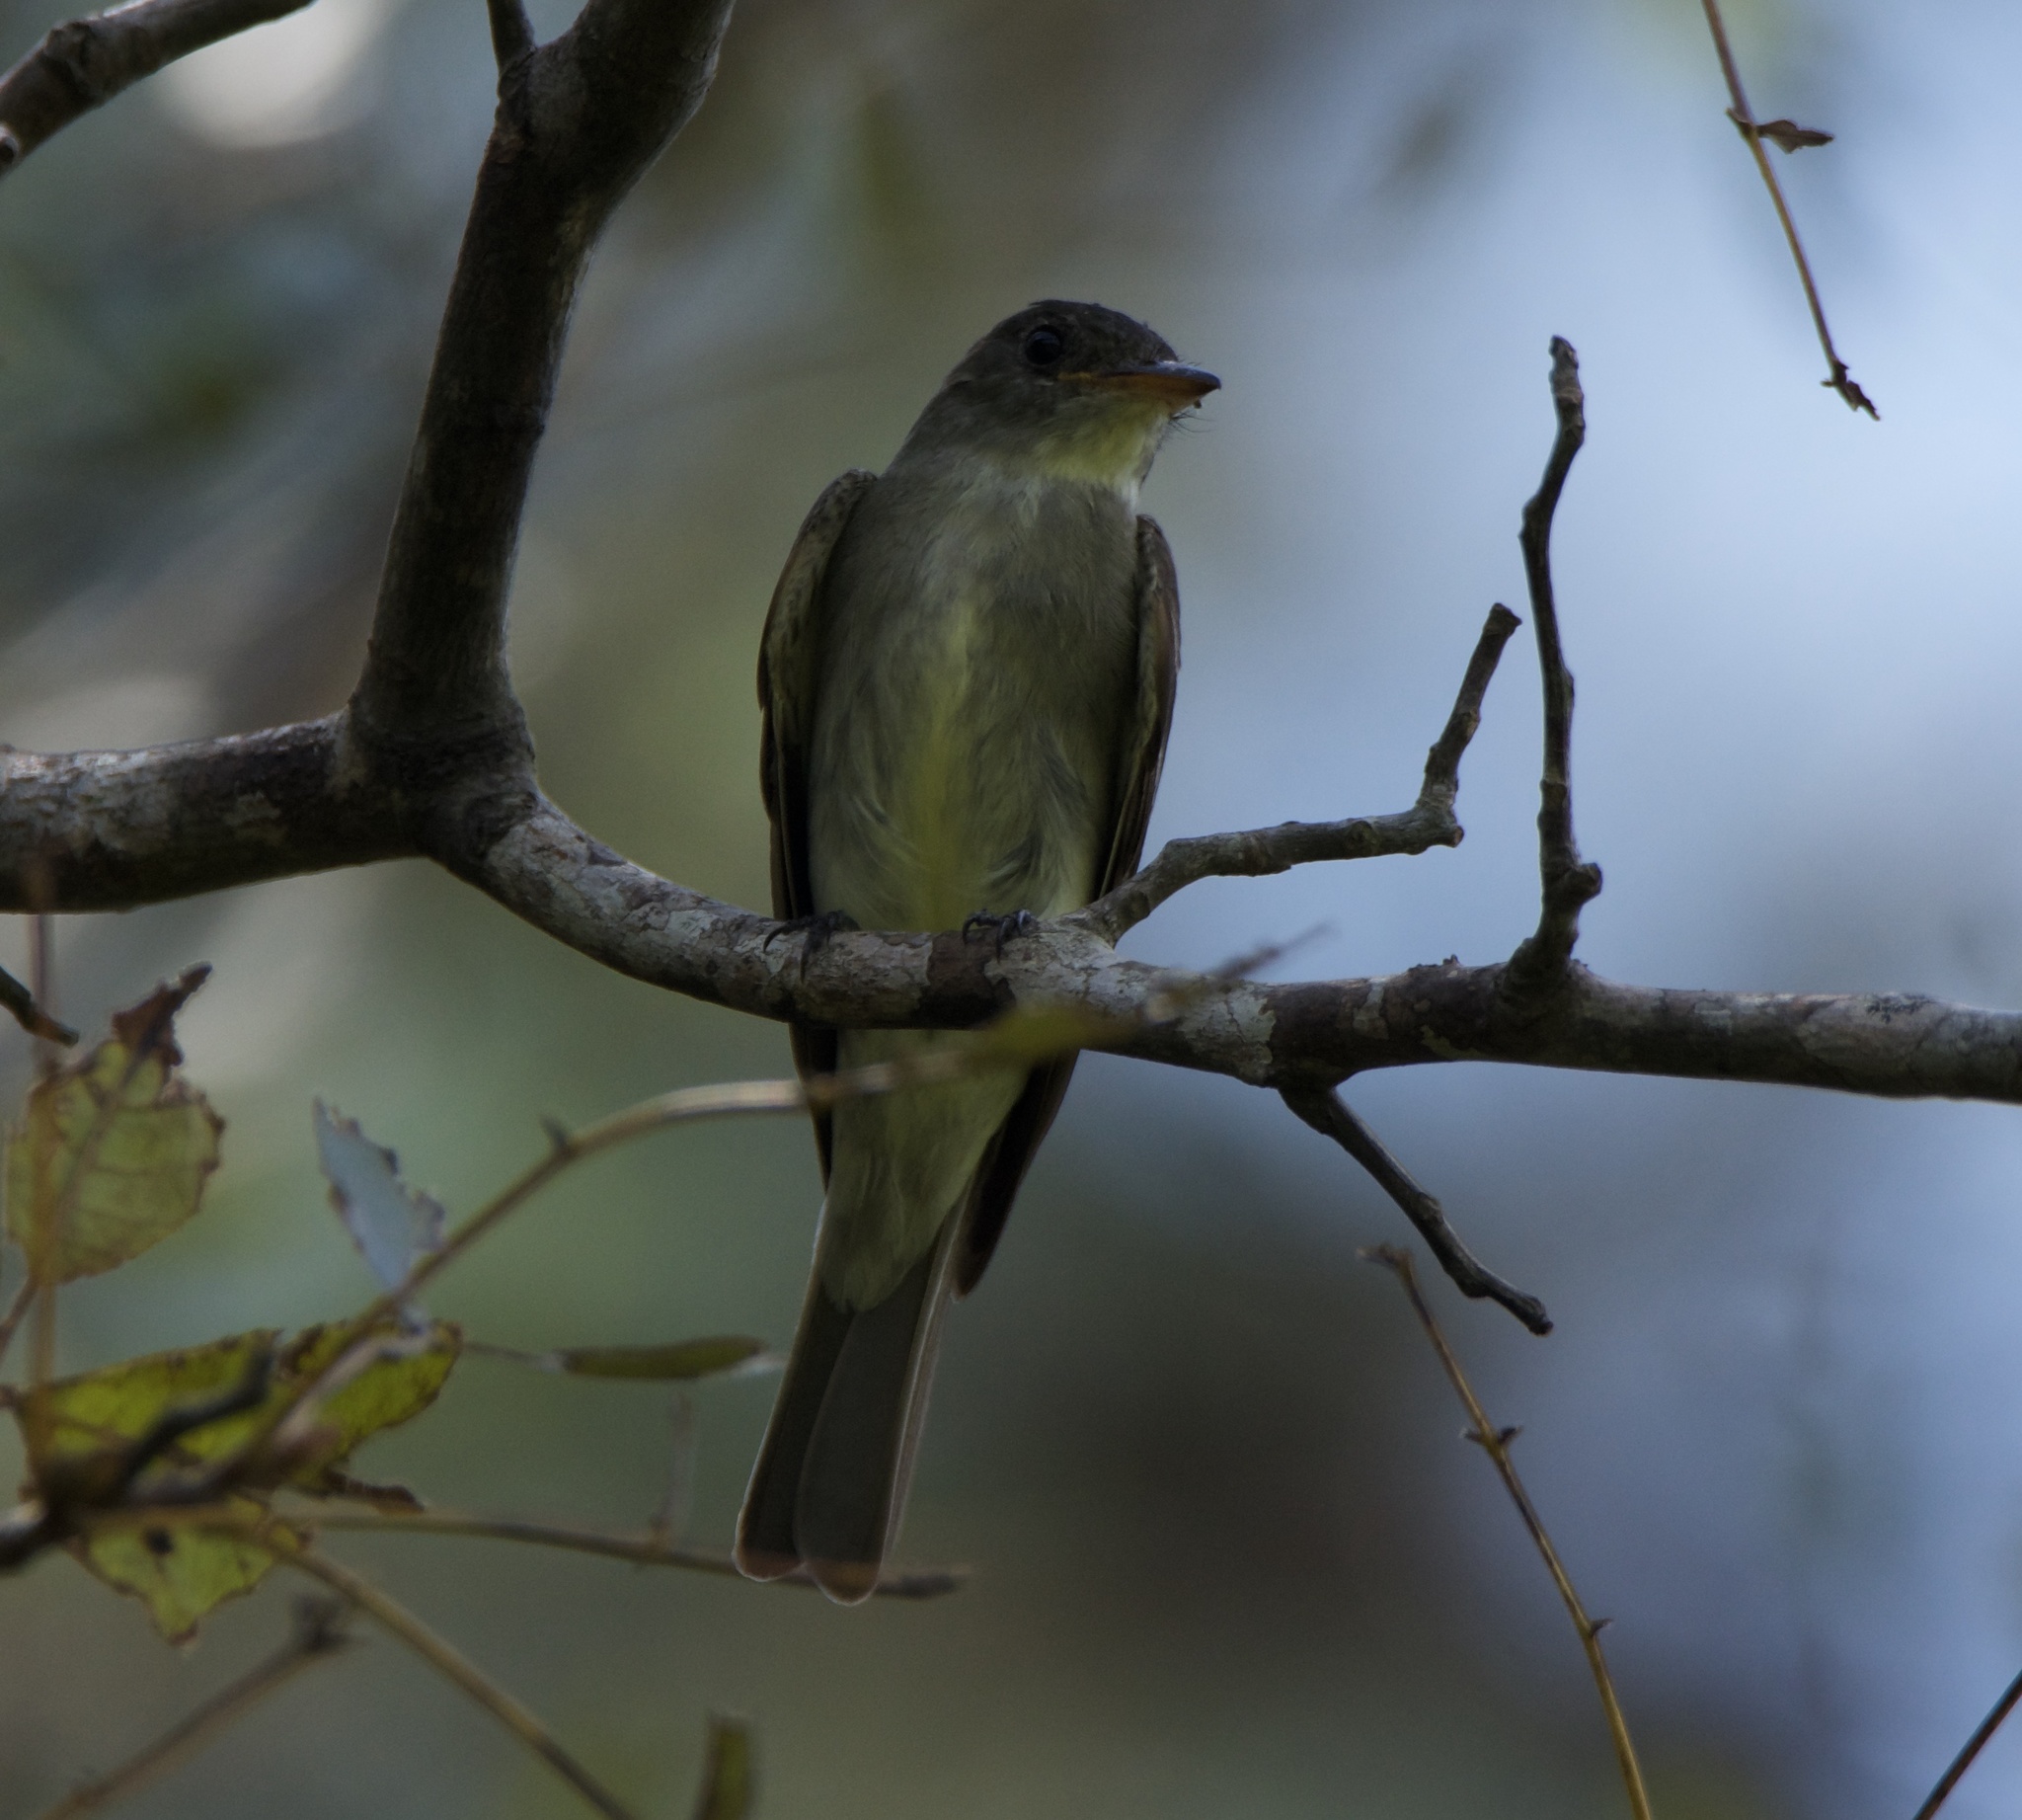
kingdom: Animalia
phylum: Chordata
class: Aves
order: Passeriformes
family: Tyrannidae
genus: Contopus
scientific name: Contopus virens
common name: Eastern wood-pewee
